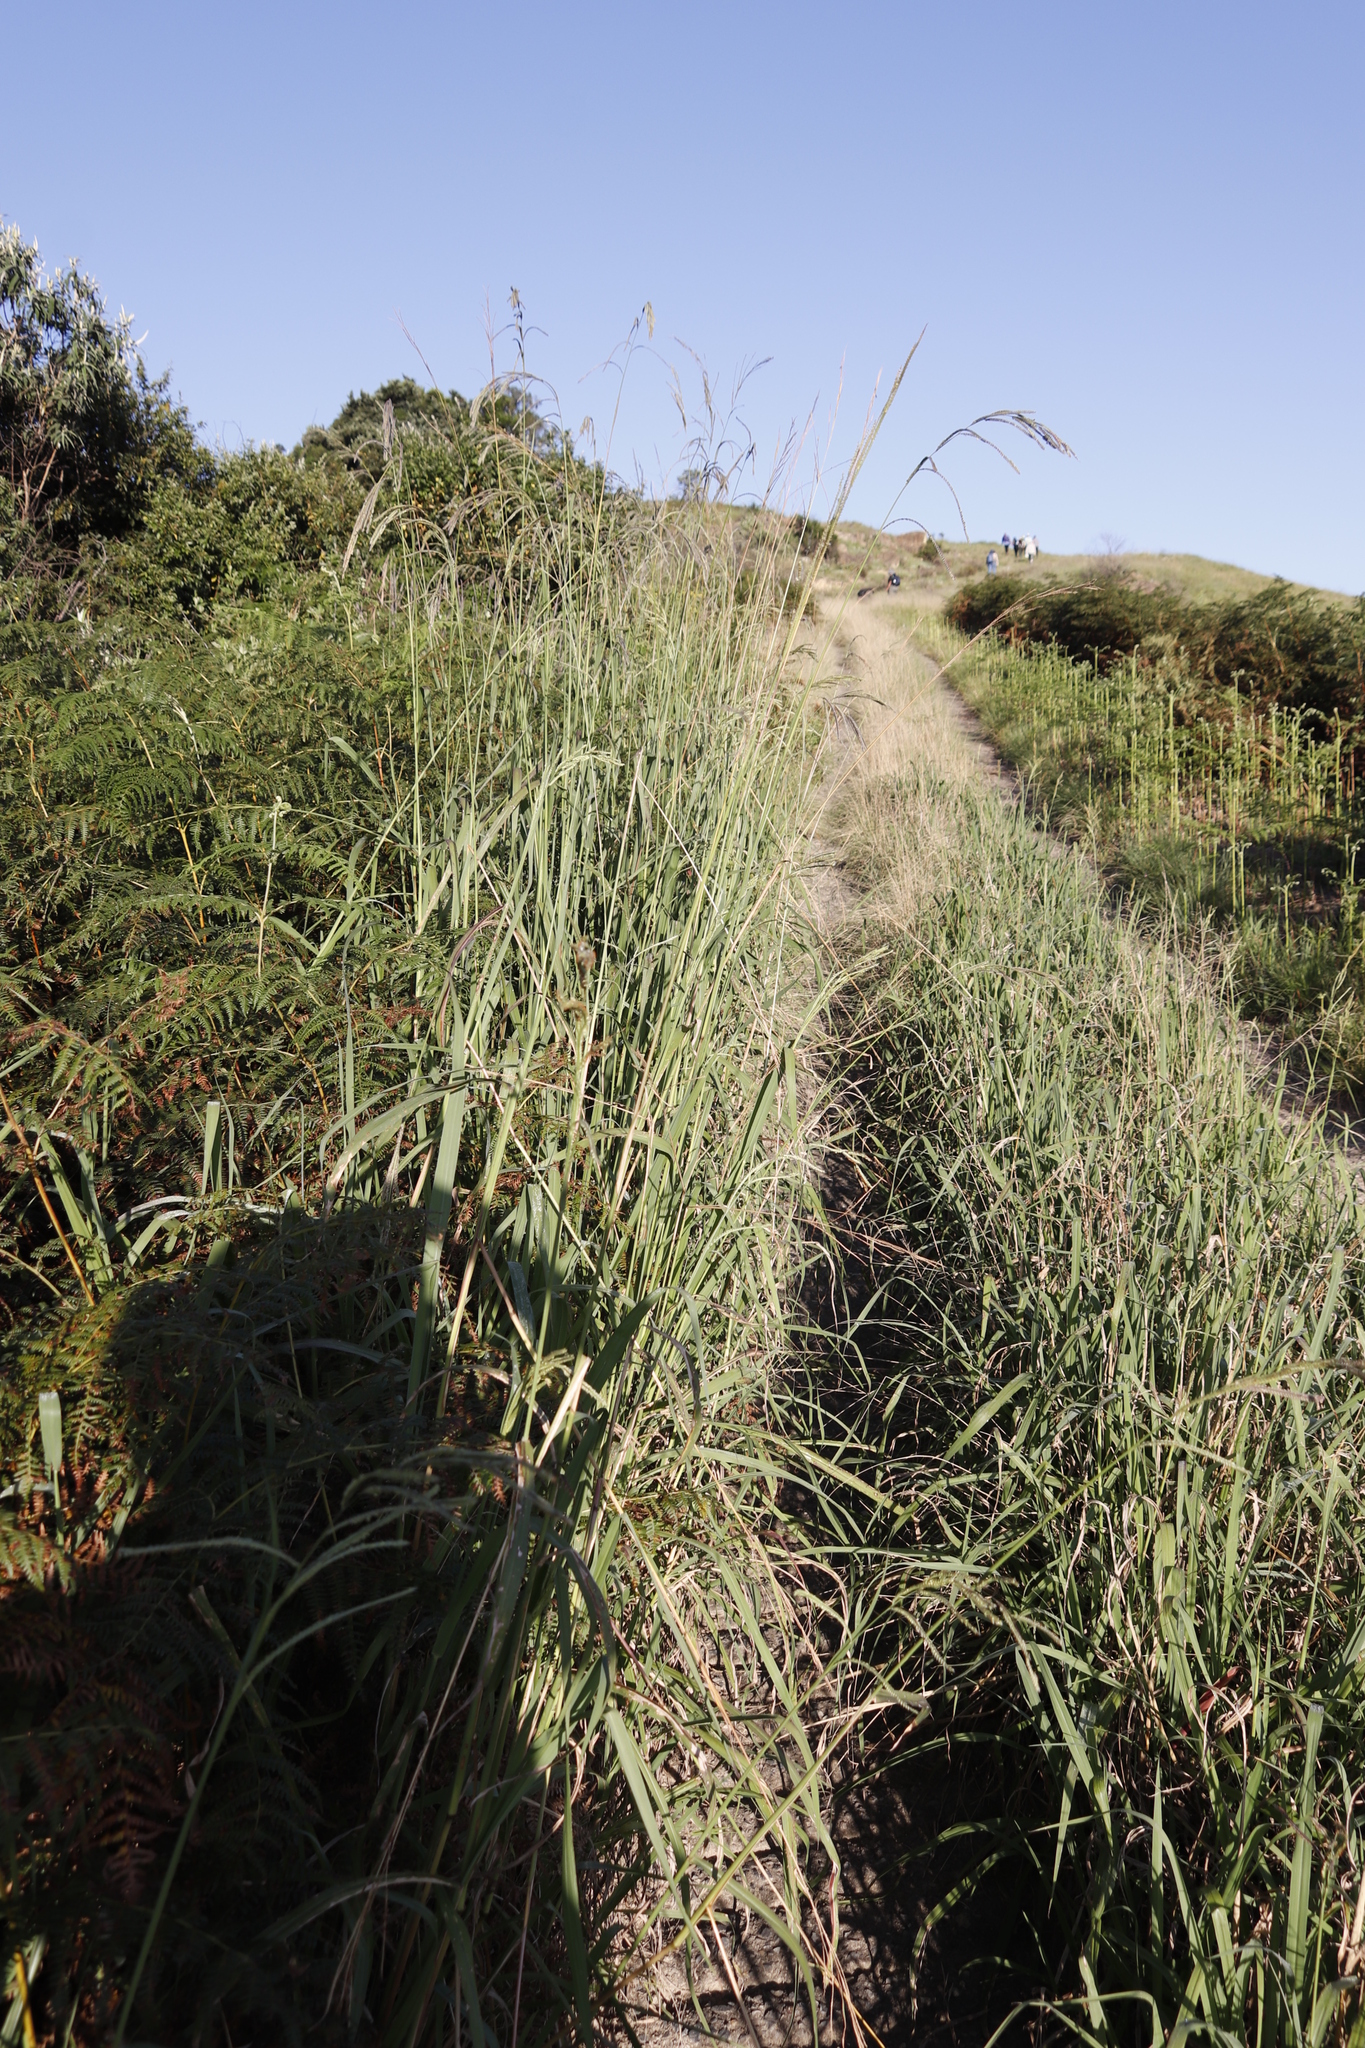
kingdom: Plantae
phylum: Tracheophyta
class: Liliopsida
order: Poales
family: Poaceae
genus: Paspalum
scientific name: Paspalum urvillei
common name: Vasey's grass
